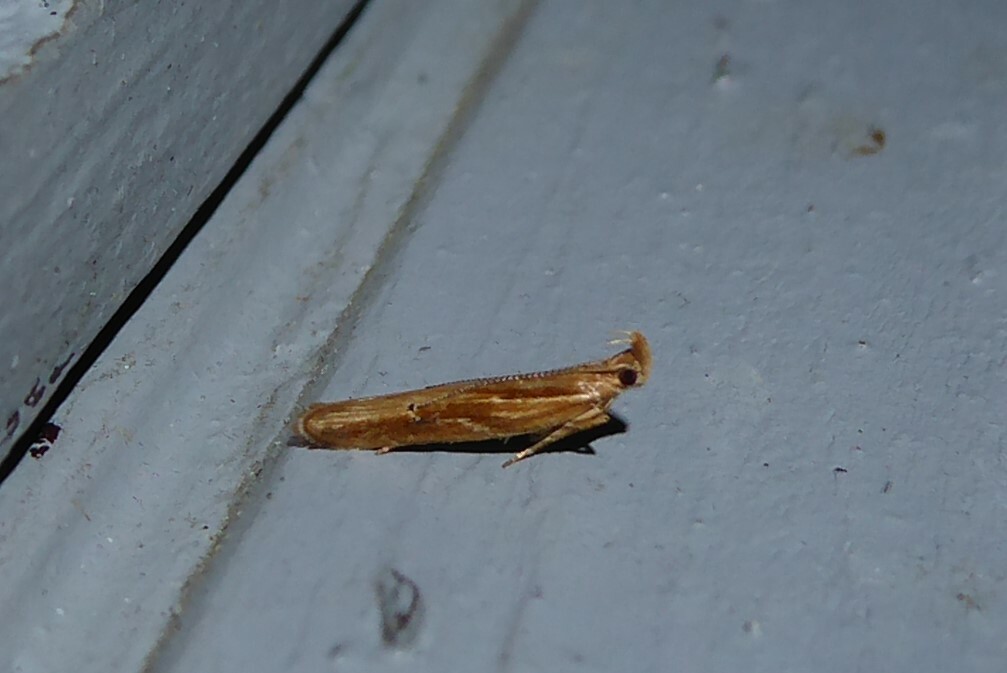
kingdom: Animalia
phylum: Arthropoda
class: Insecta
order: Lepidoptera
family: Depressariidae
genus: Eutorna
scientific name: Eutorna symmorpha
